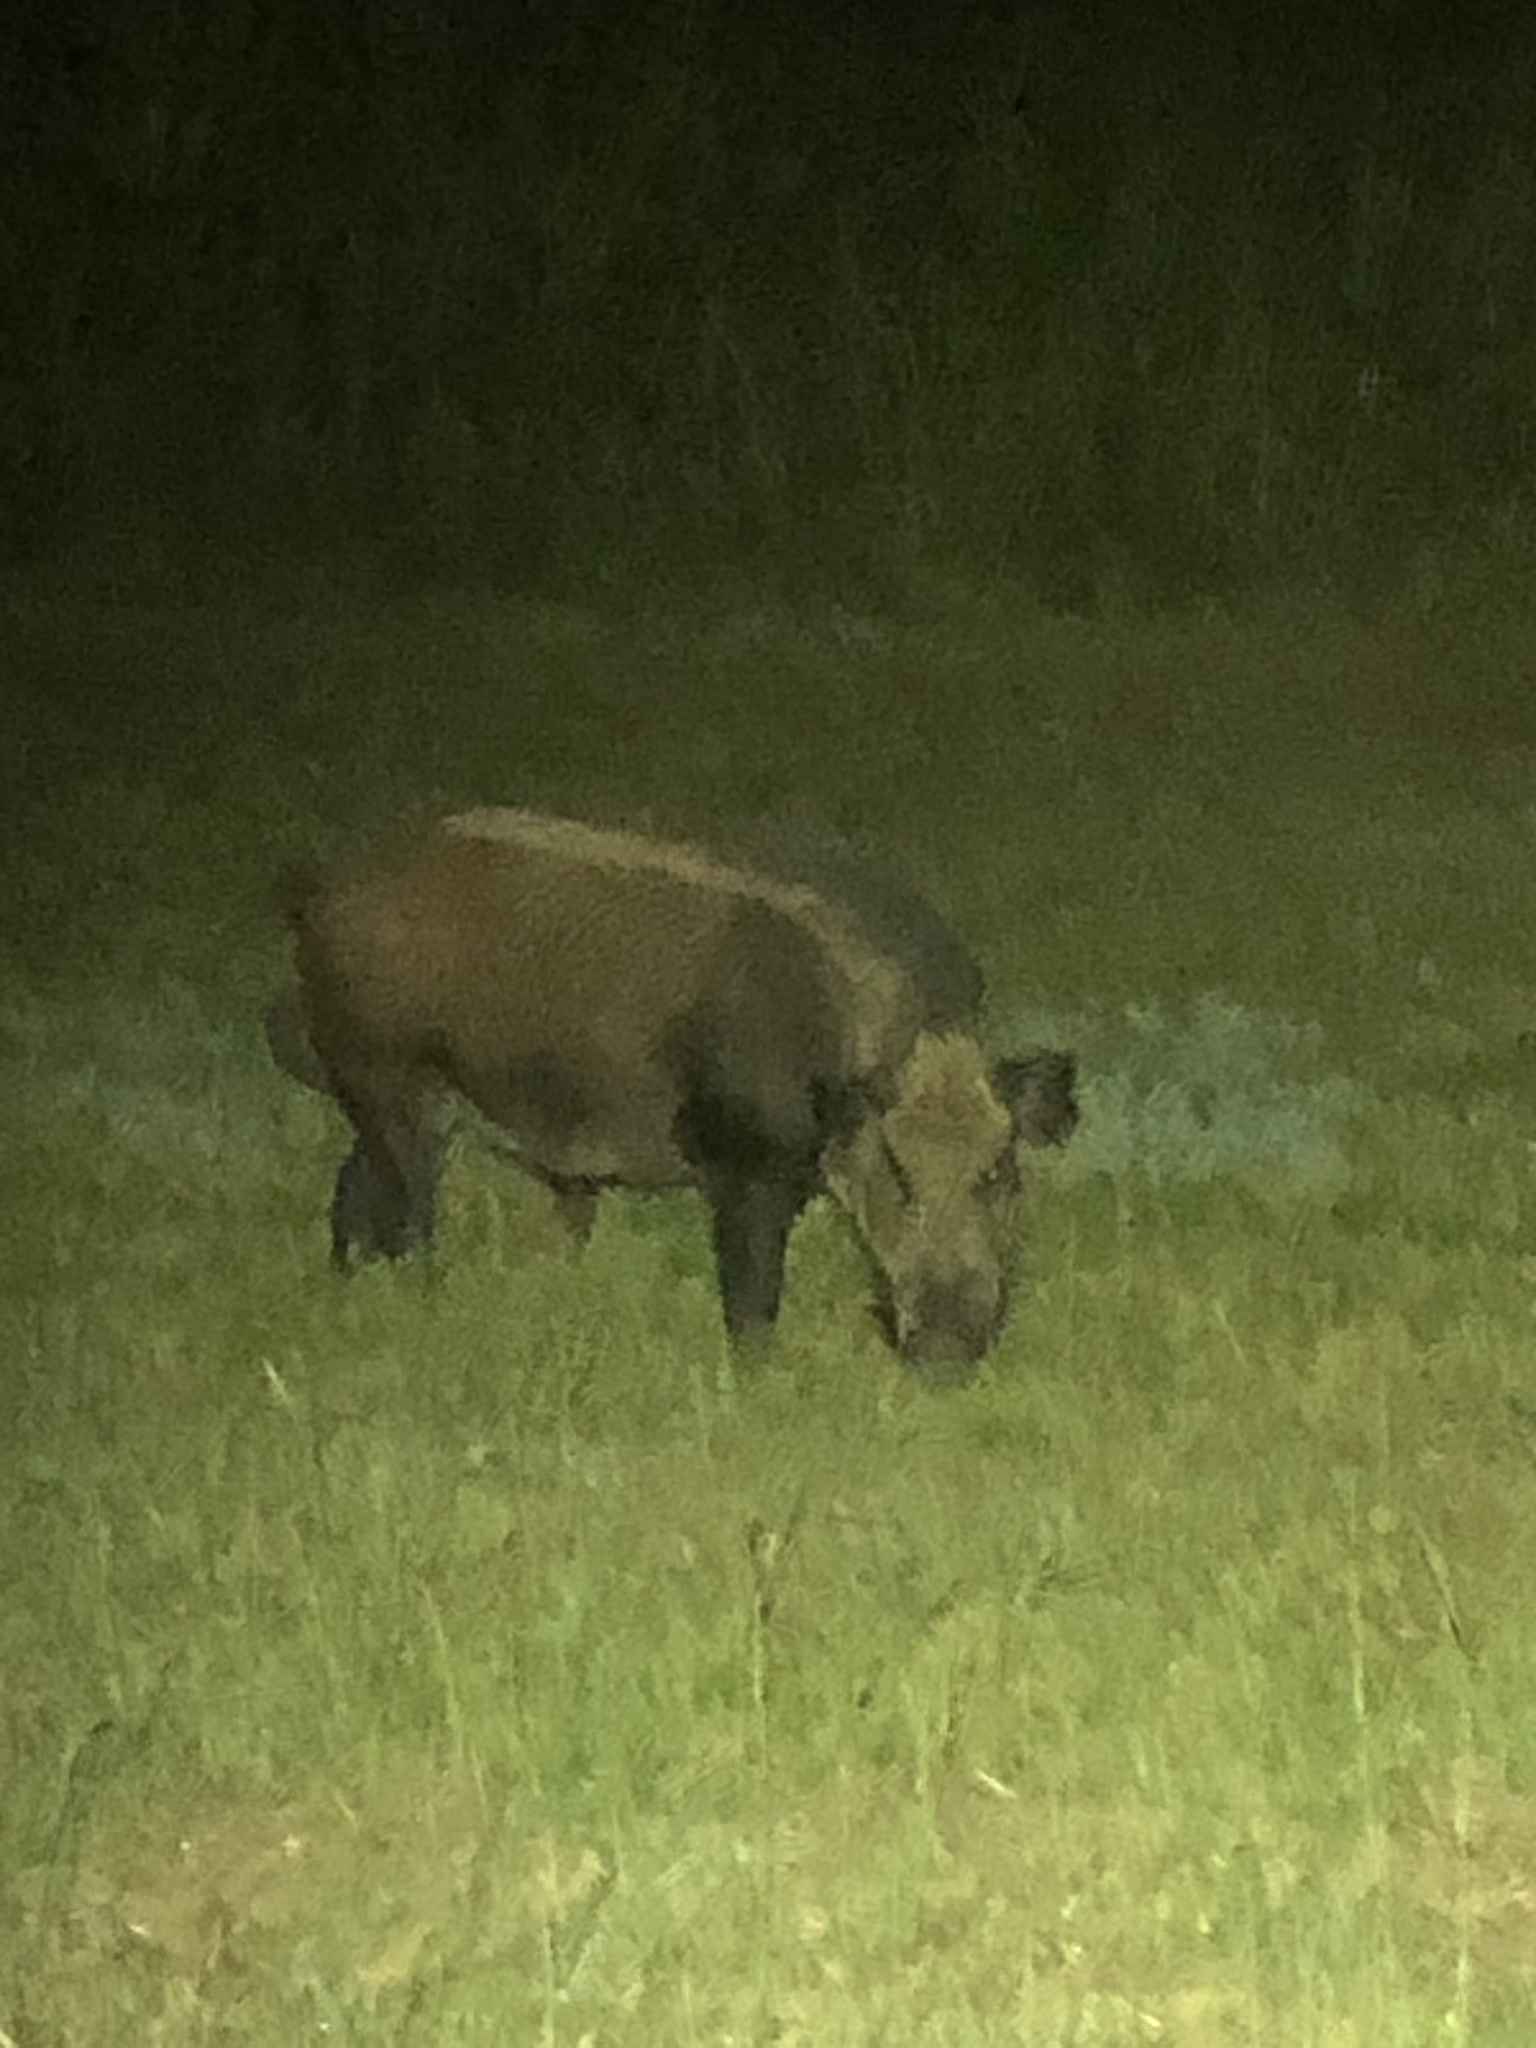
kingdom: Animalia
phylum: Chordata
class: Mammalia
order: Artiodactyla
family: Suidae
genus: Sus
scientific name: Sus scrofa
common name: Wild boar
